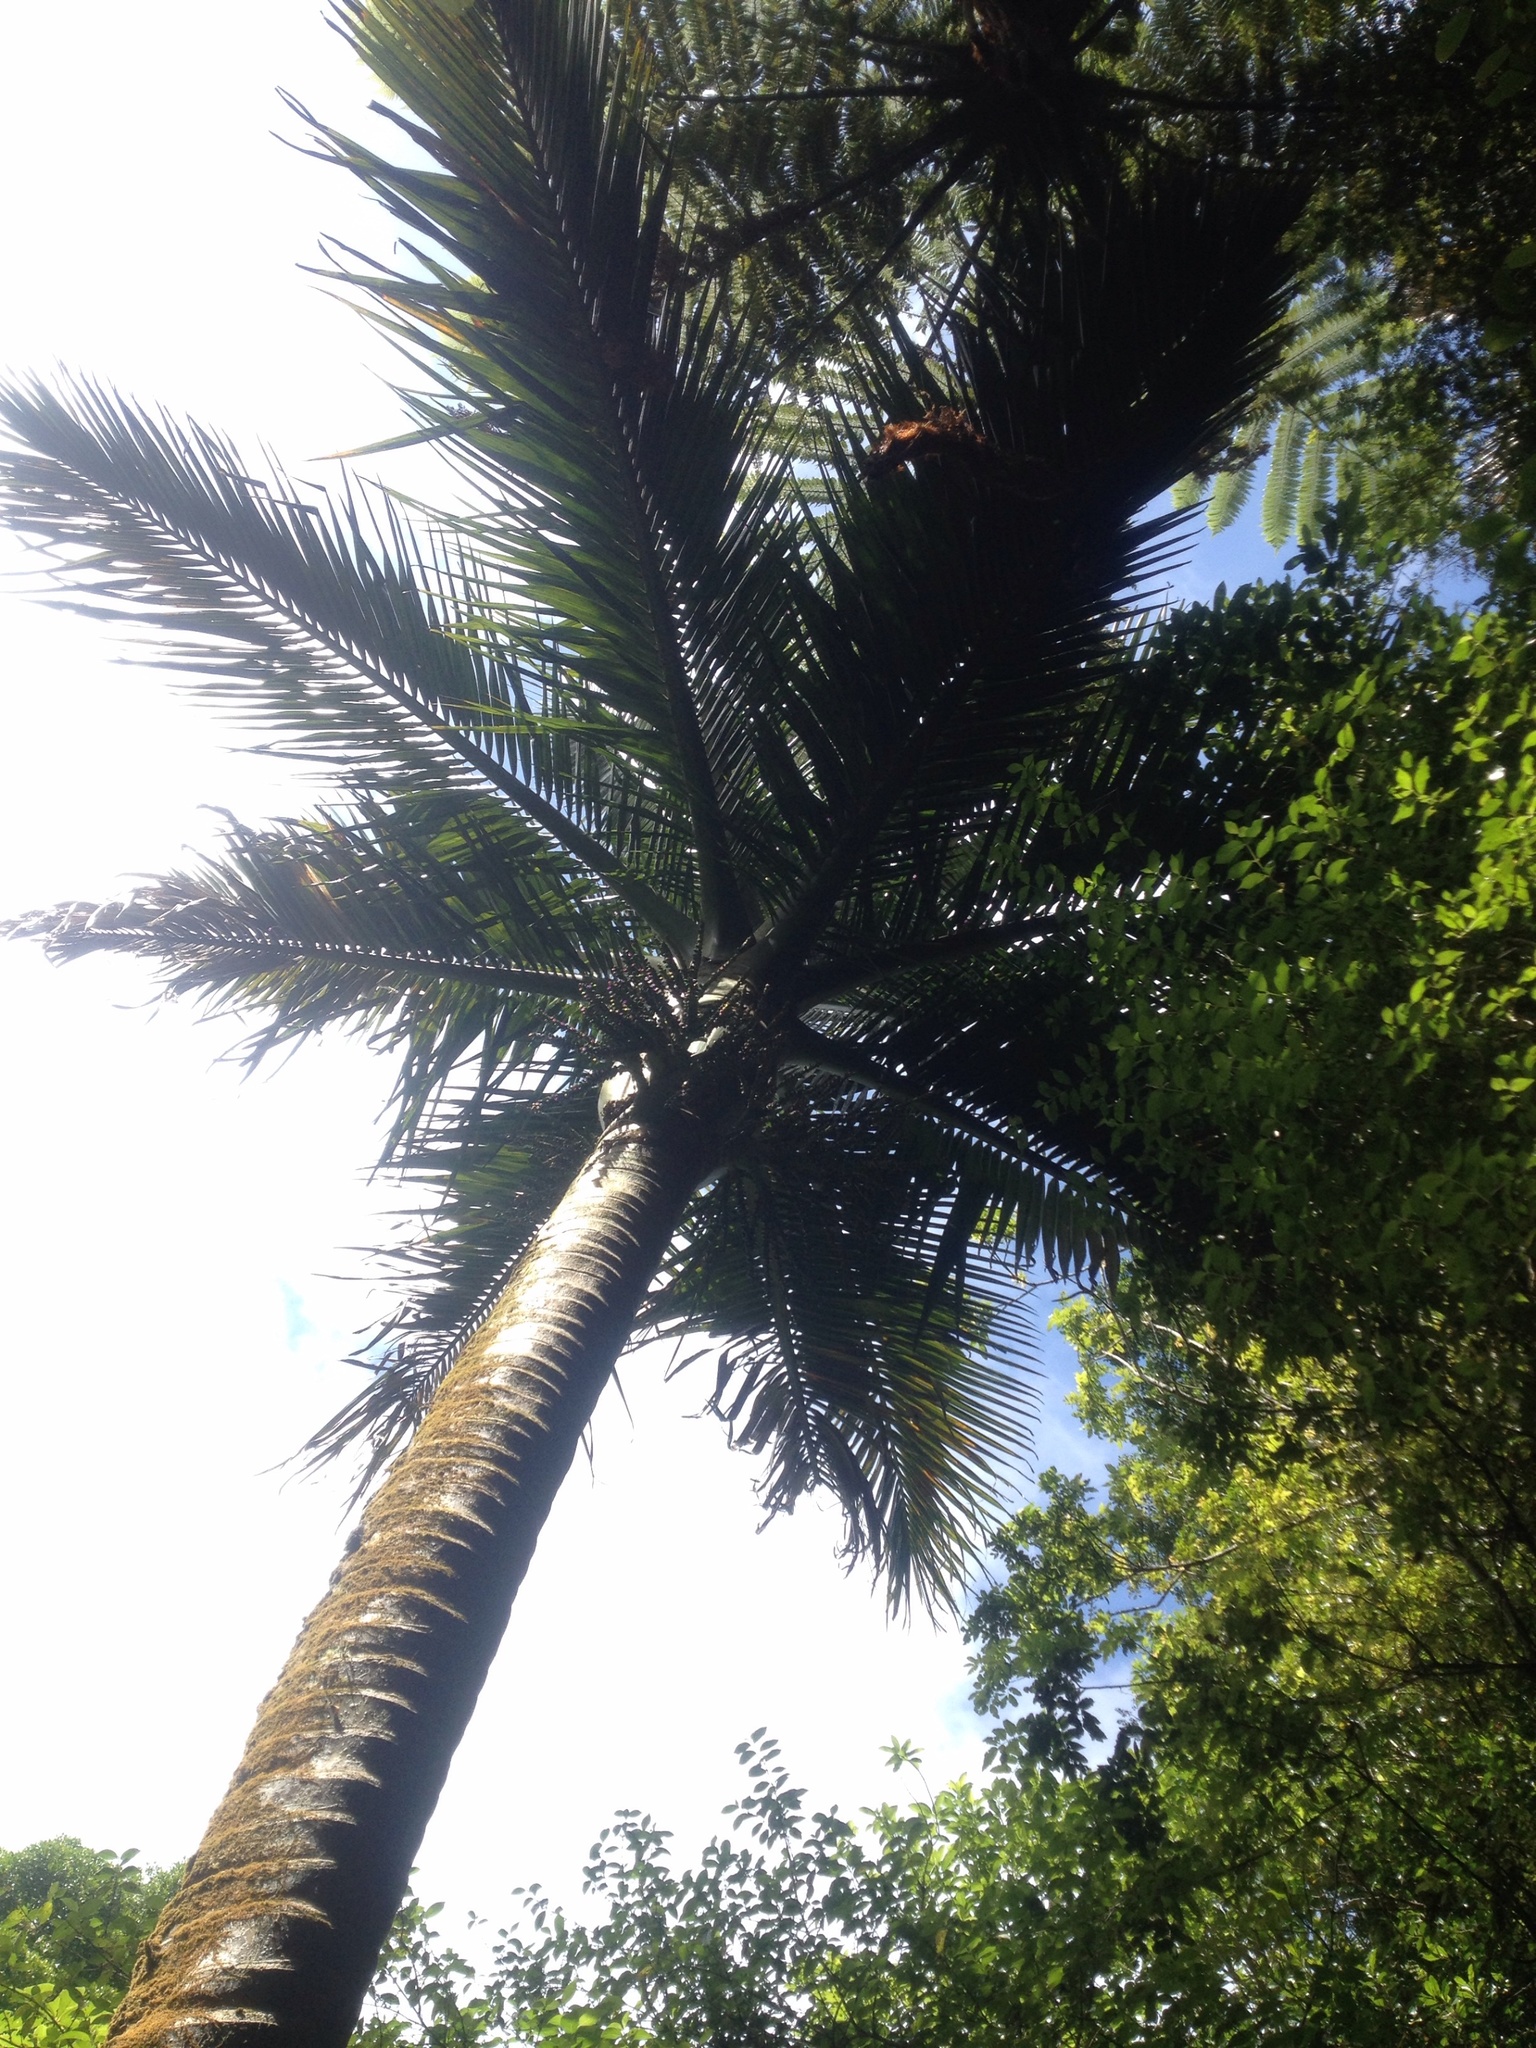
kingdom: Plantae
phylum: Tracheophyta
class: Liliopsida
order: Arecales
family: Arecaceae
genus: Rhopalostylis
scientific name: Rhopalostylis sapida
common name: Feather-duster palm
